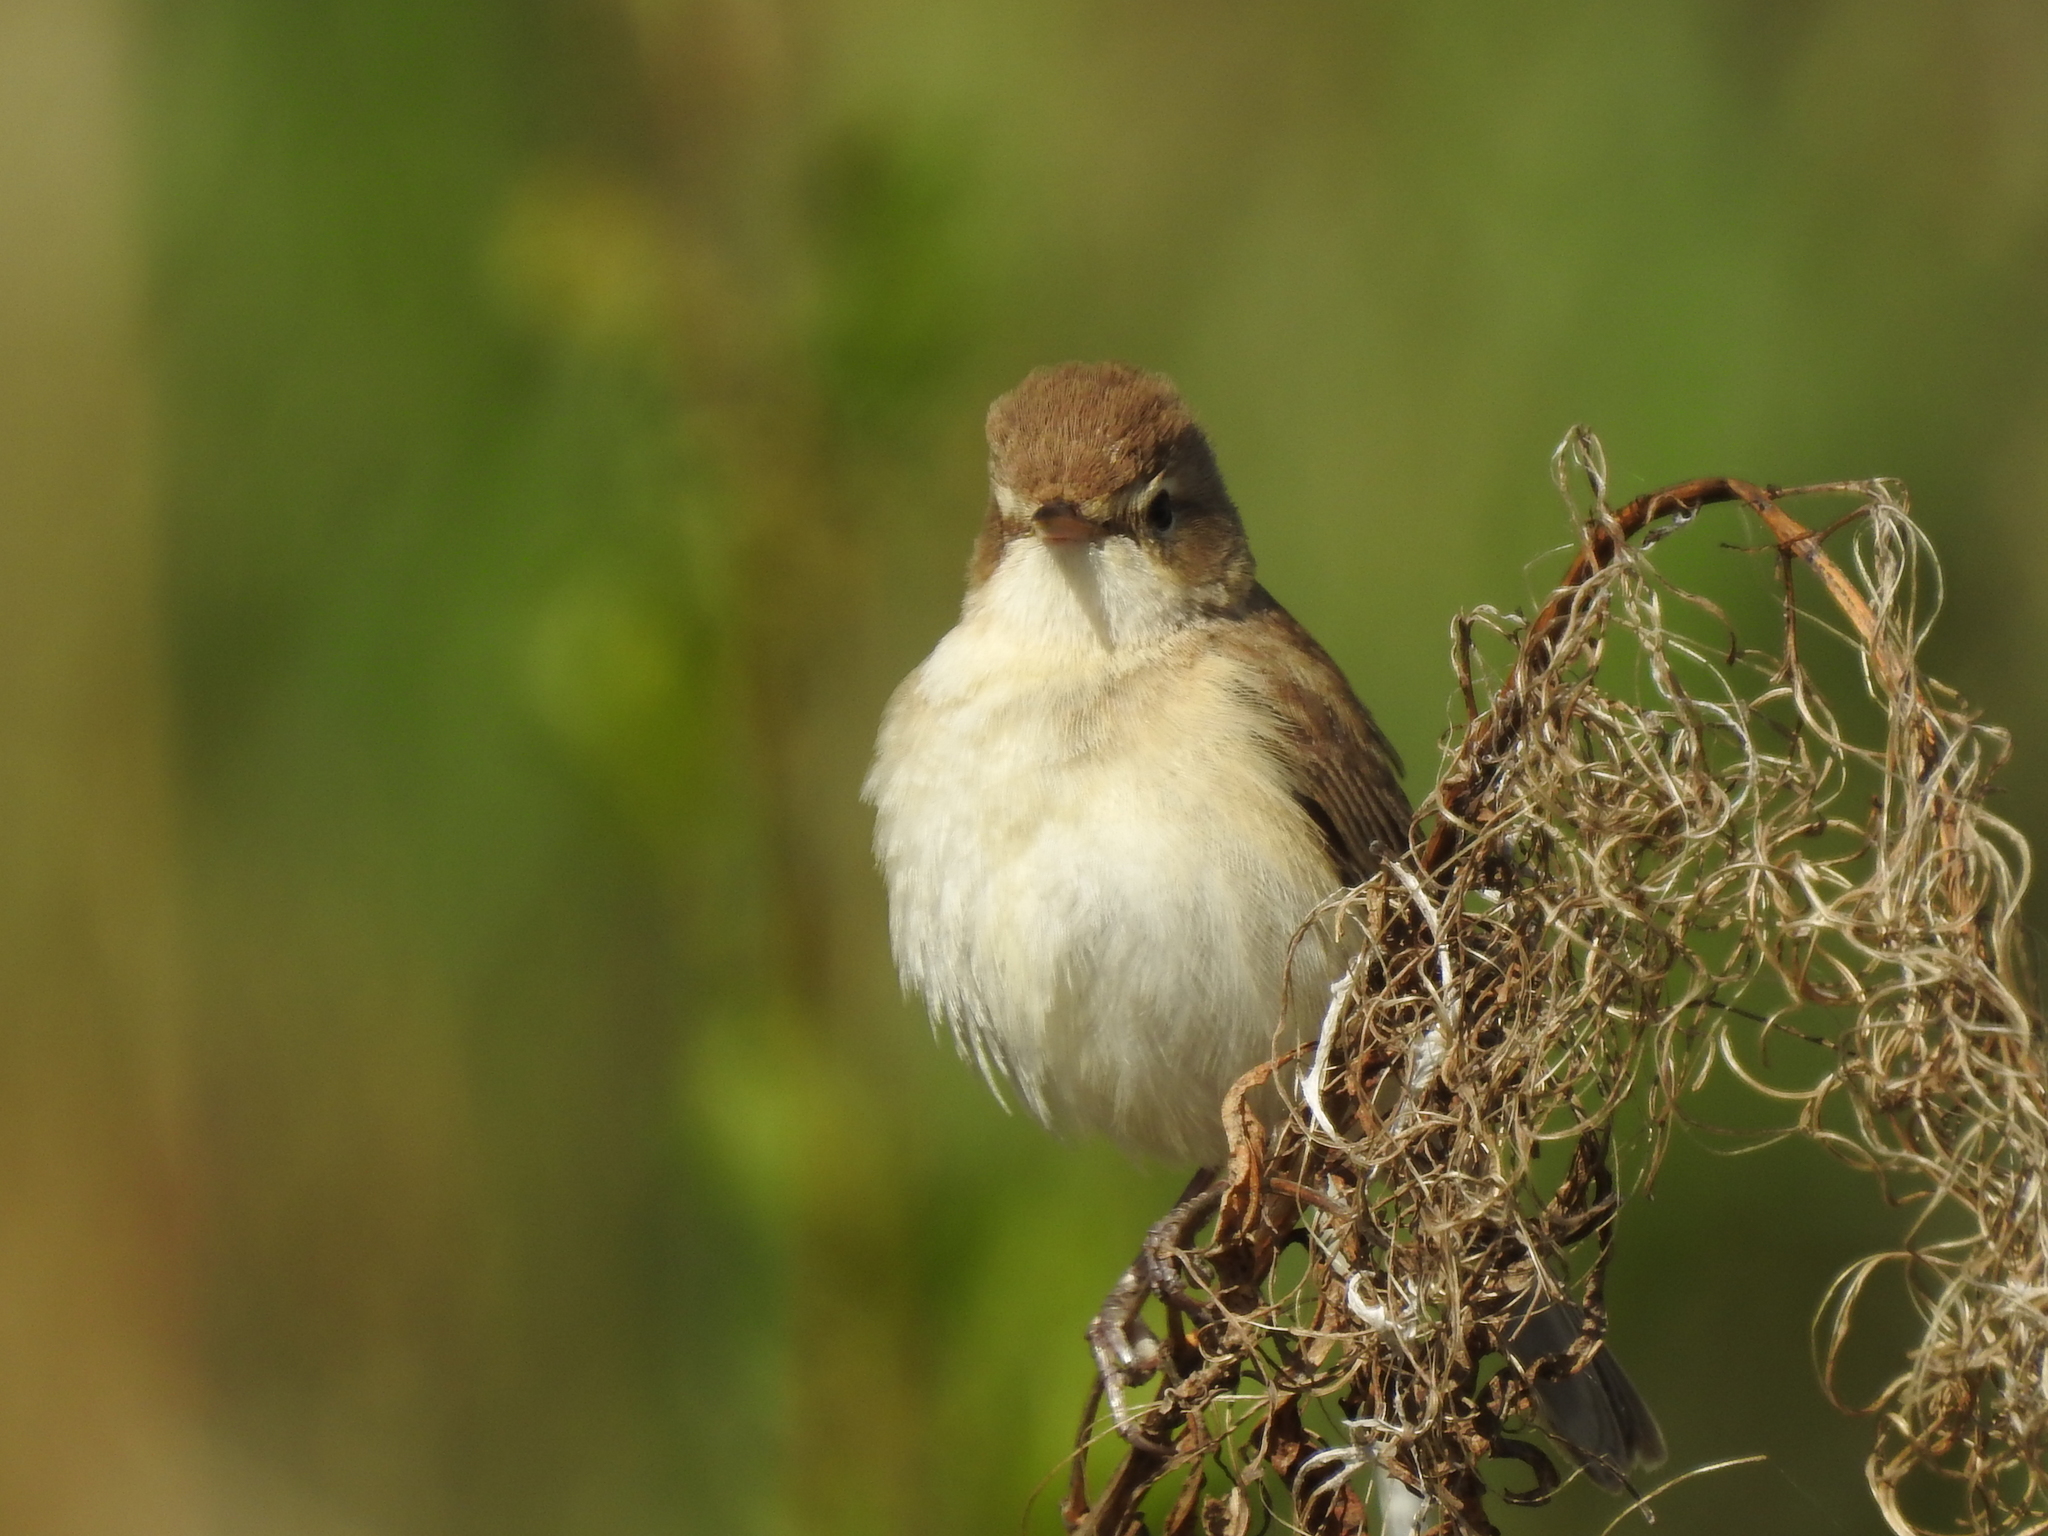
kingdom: Animalia
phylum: Chordata
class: Aves
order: Passeriformes
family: Acrocephalidae
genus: Iduna
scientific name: Iduna caligata
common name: Booted warbler
